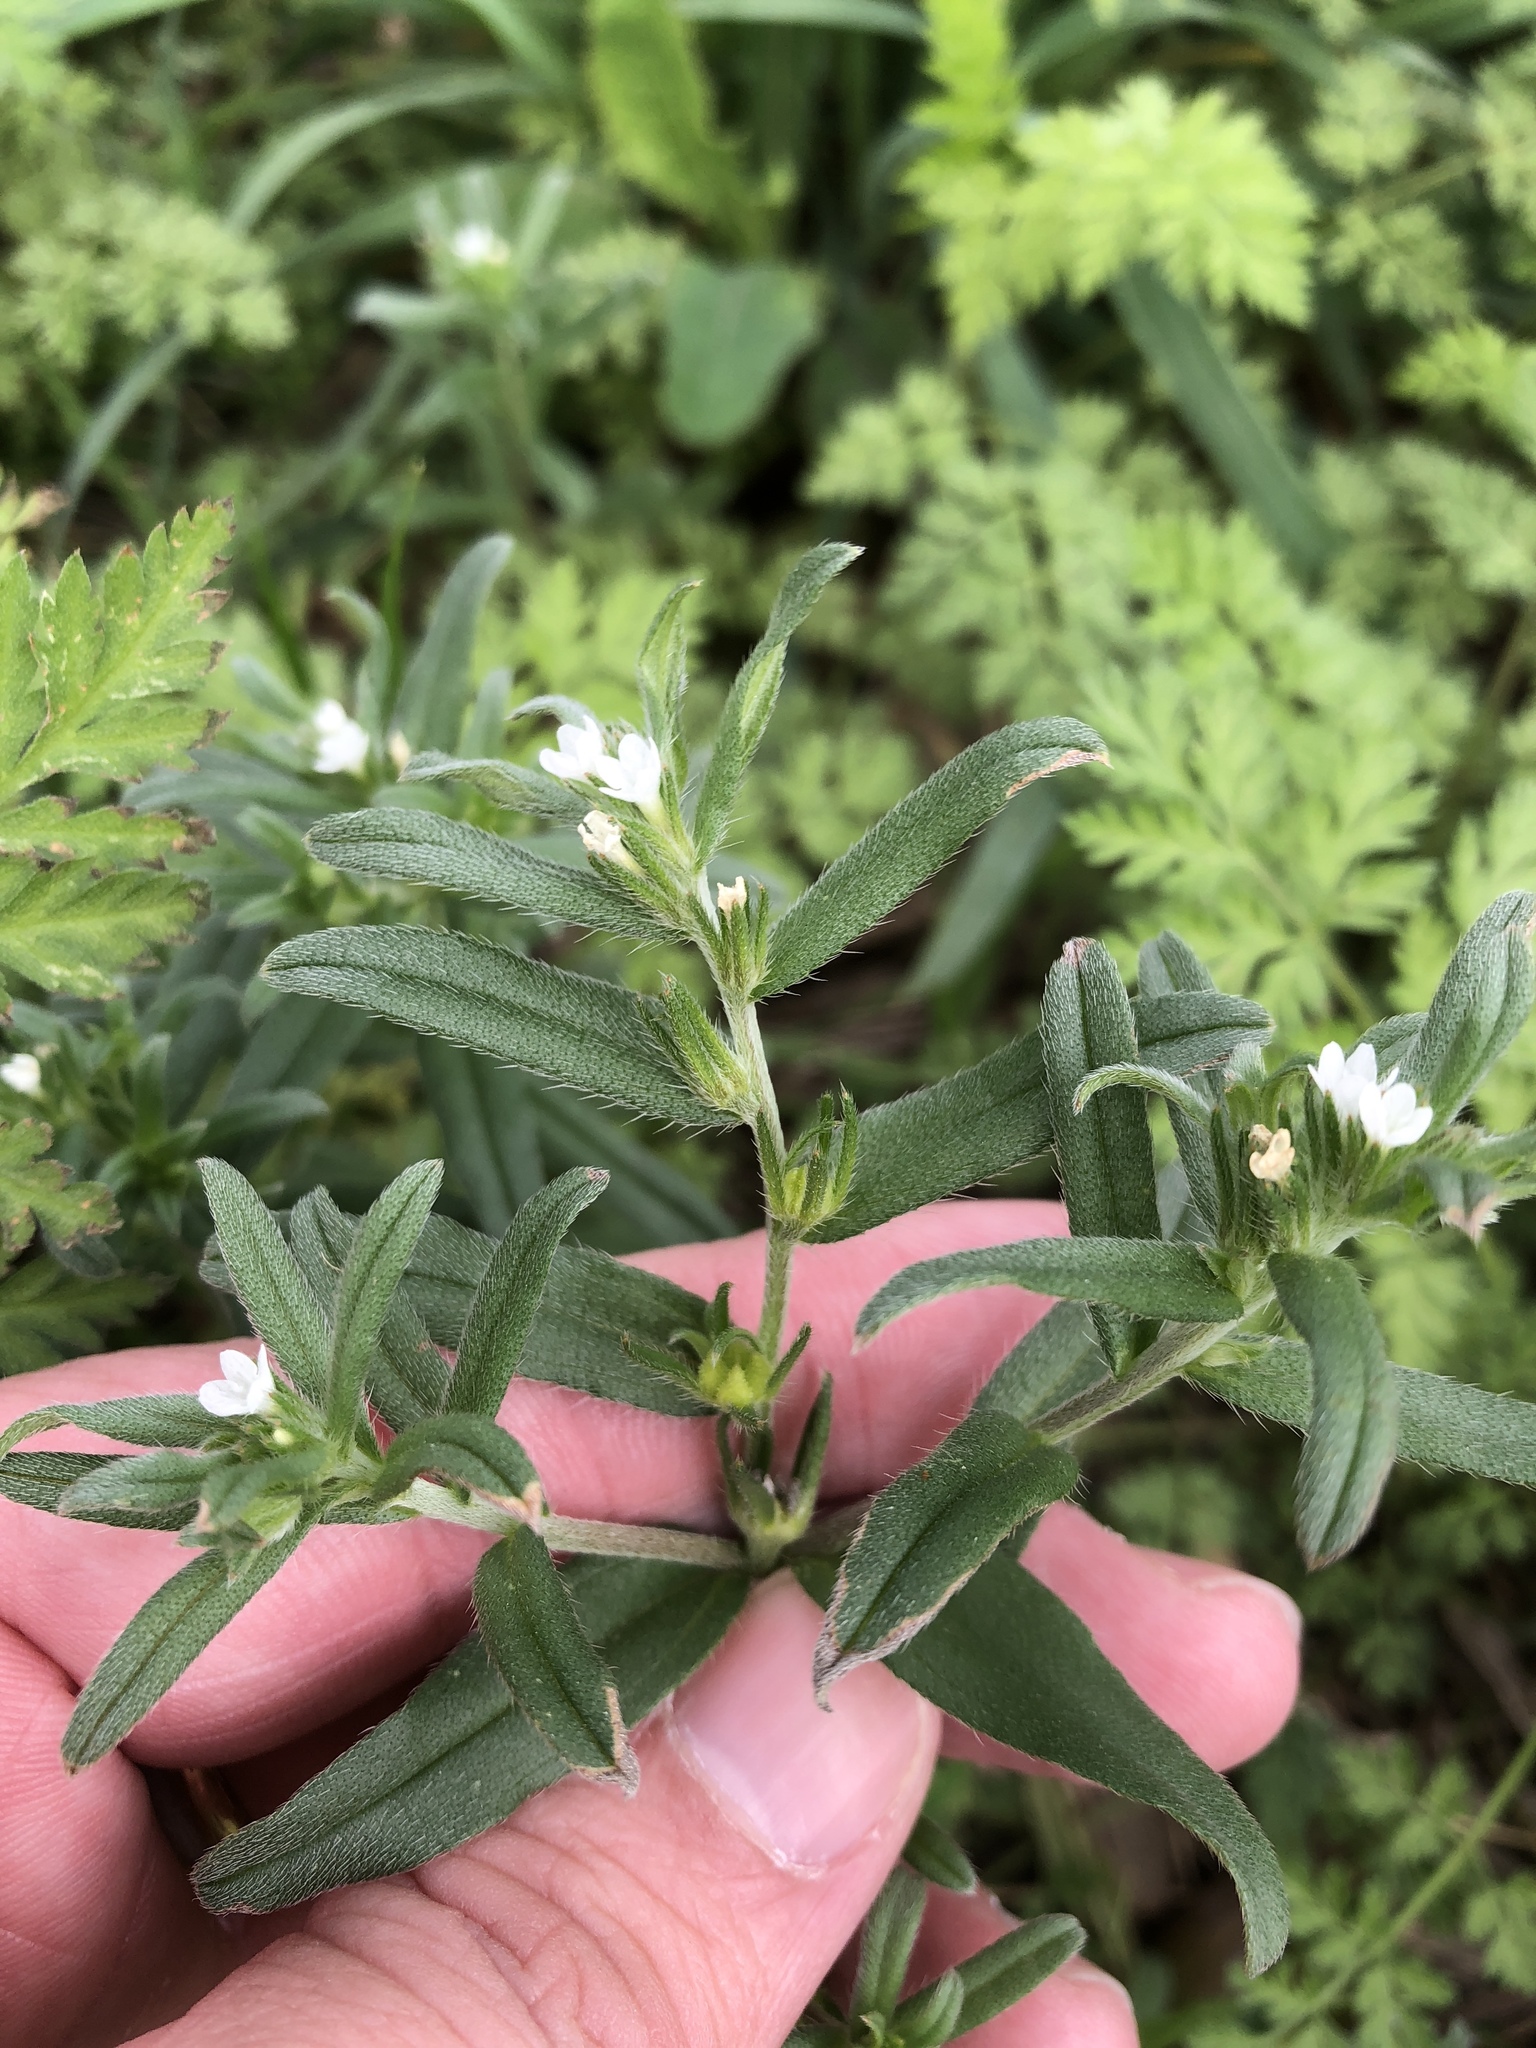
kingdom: Plantae
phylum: Tracheophyta
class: Magnoliopsida
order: Boraginales
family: Boraginaceae
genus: Buglossoides
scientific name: Buglossoides arvensis
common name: Corn gromwell
